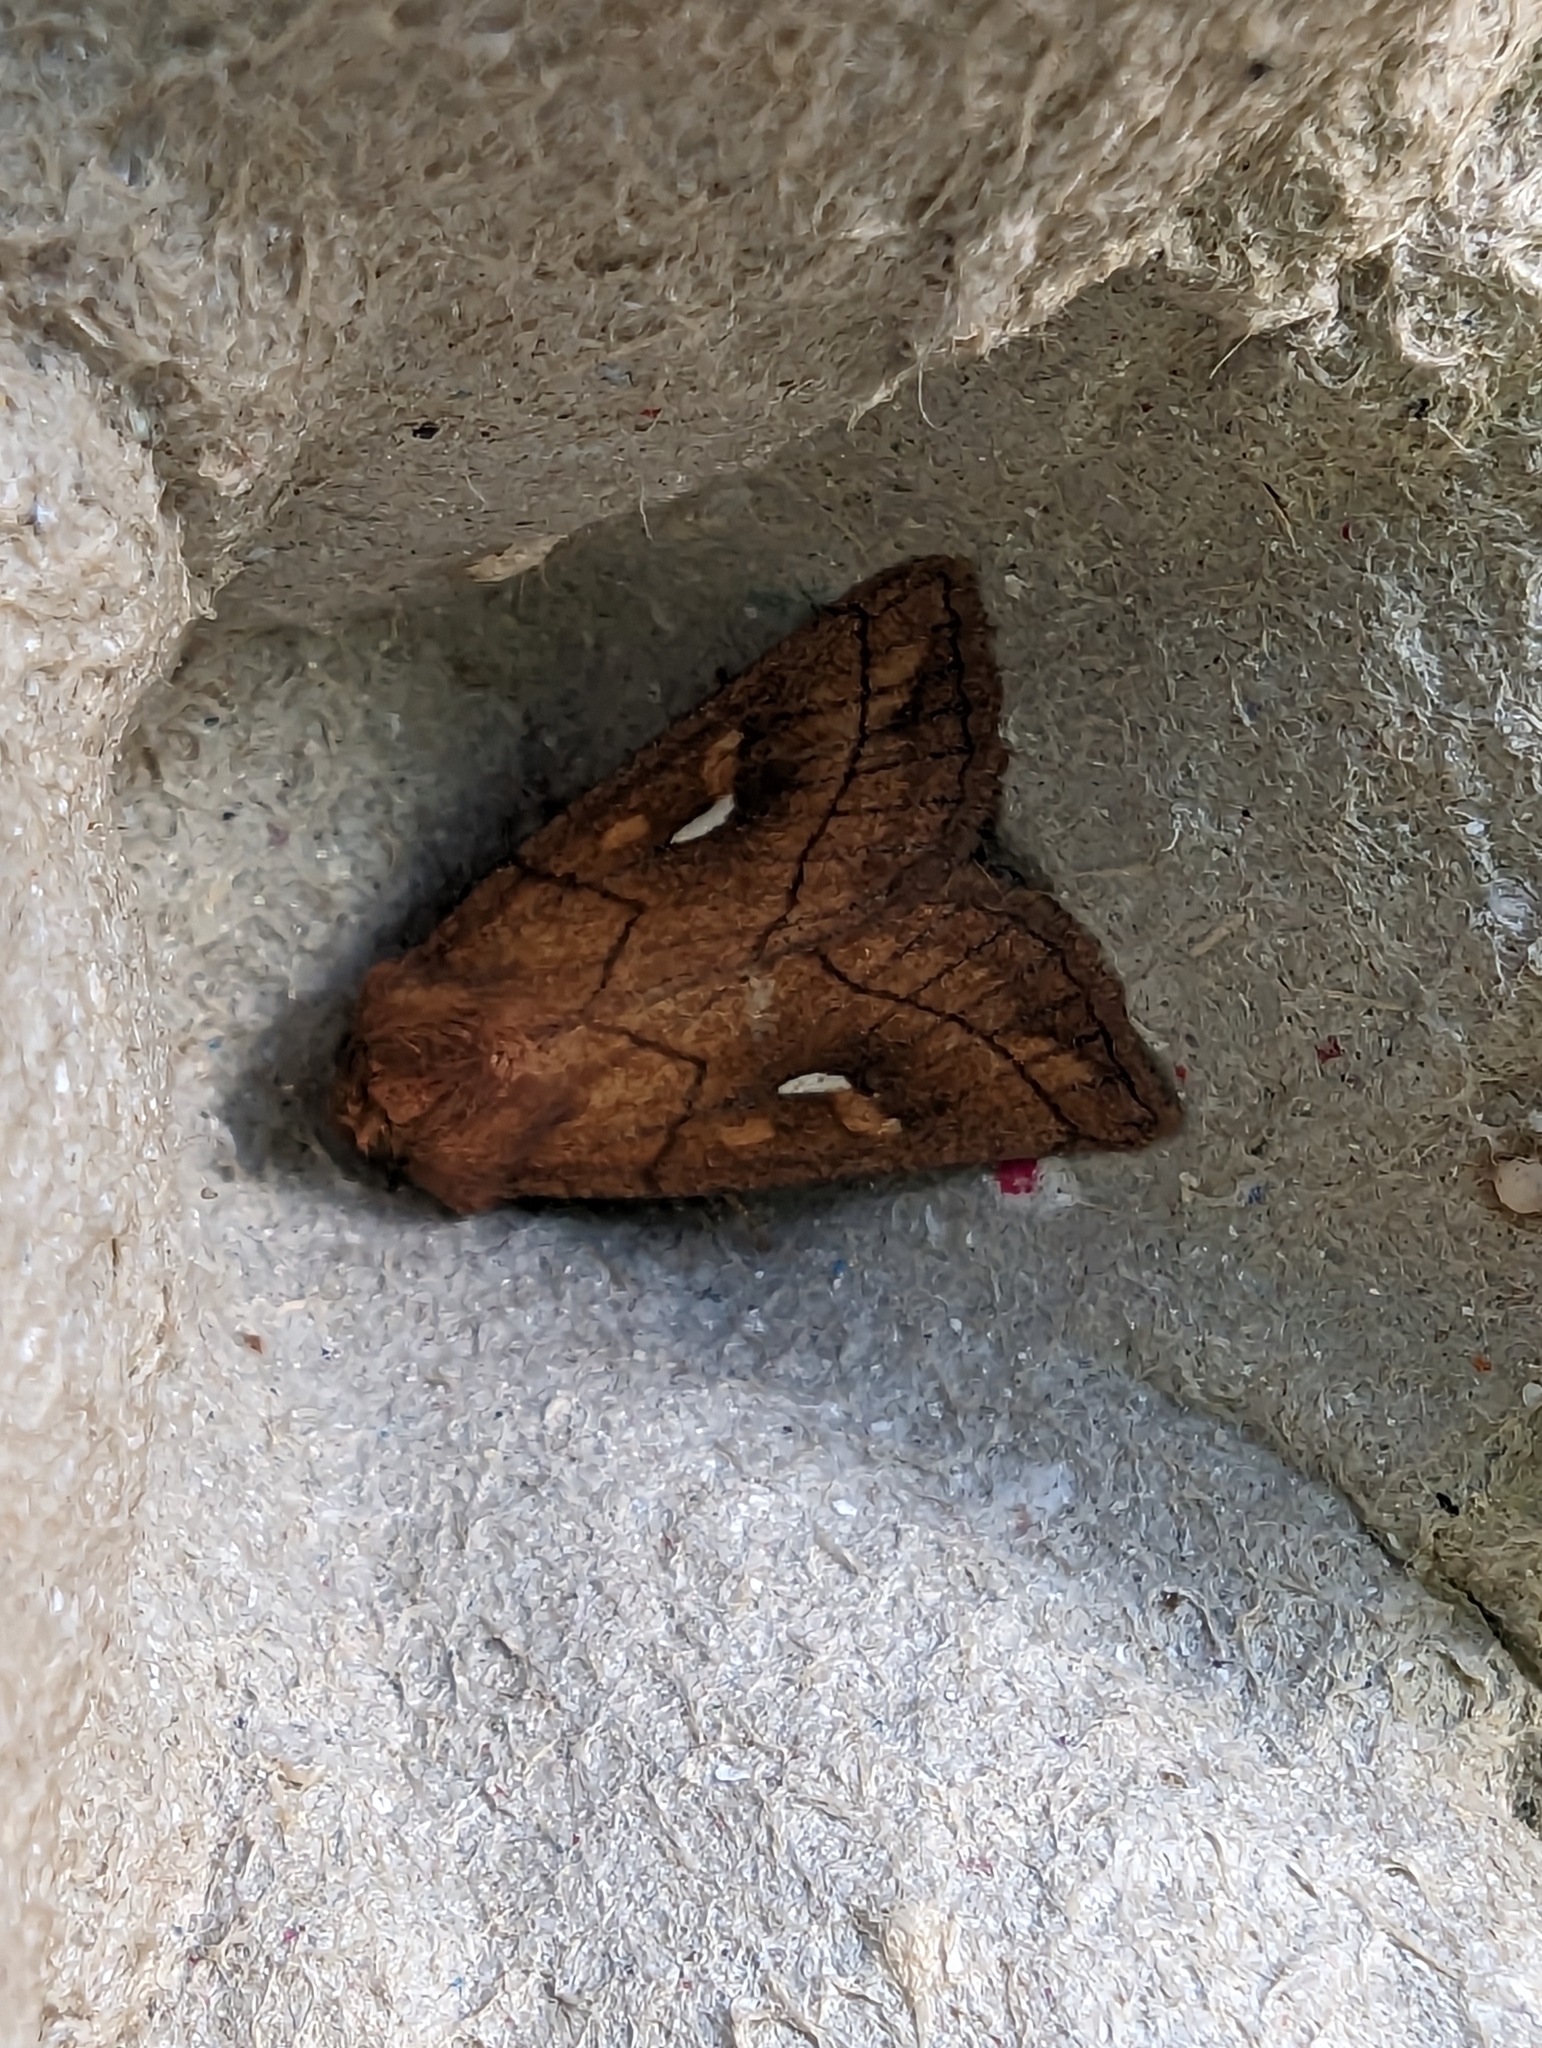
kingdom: Animalia
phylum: Arthropoda
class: Insecta
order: Lepidoptera
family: Noctuidae
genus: Mythimna
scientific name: Mythimna conigera
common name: Brown-line bright-eye
